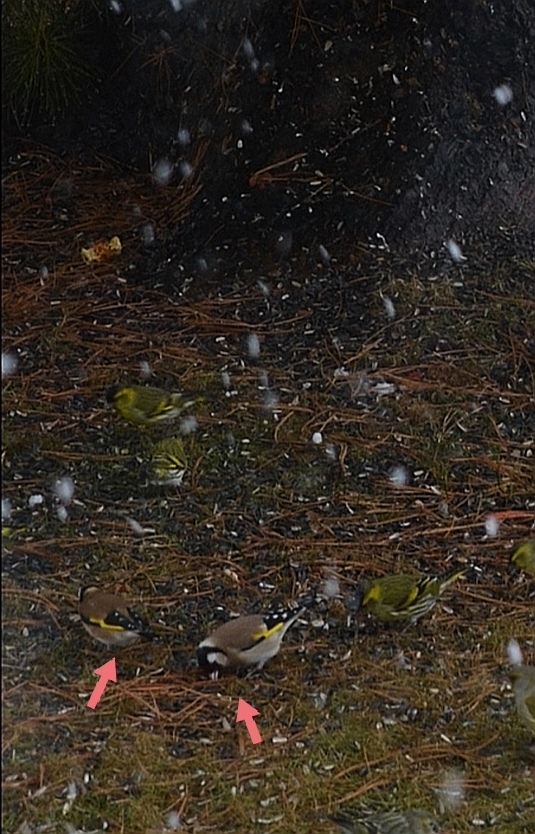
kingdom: Animalia
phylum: Chordata
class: Aves
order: Passeriformes
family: Fringillidae
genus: Carduelis
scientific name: Carduelis carduelis
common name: European goldfinch
